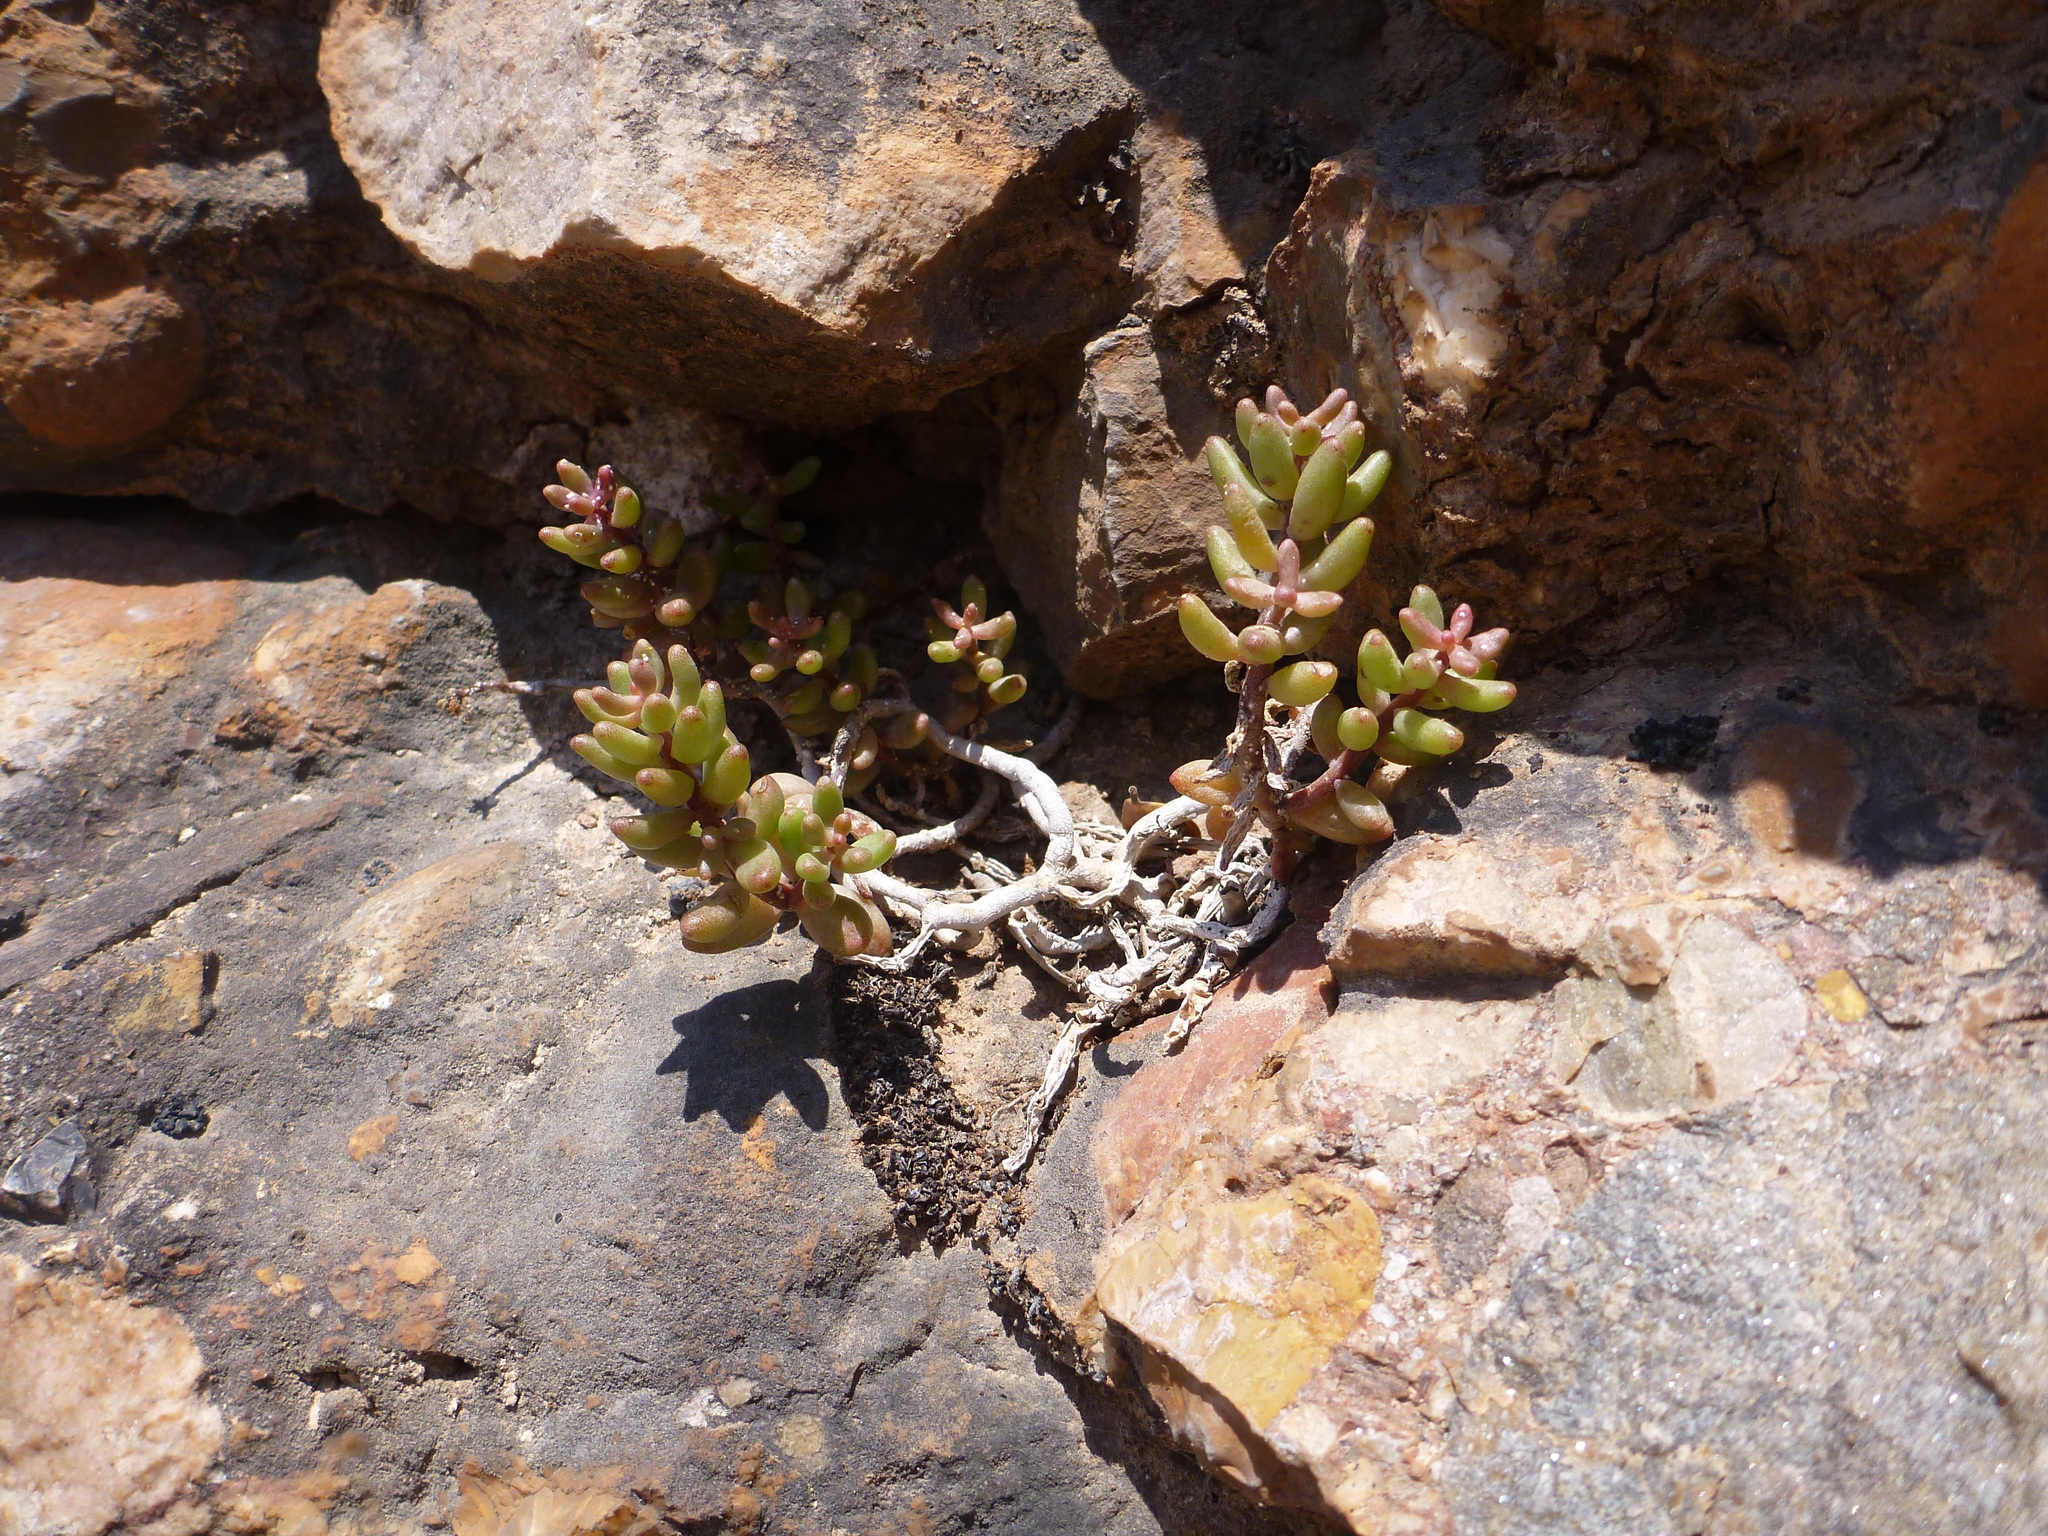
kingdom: Plantae
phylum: Tracheophyta
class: Magnoliopsida
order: Saxifragales
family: Crassulaceae
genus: Sedum
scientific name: Sedum album
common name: White stonecrop
